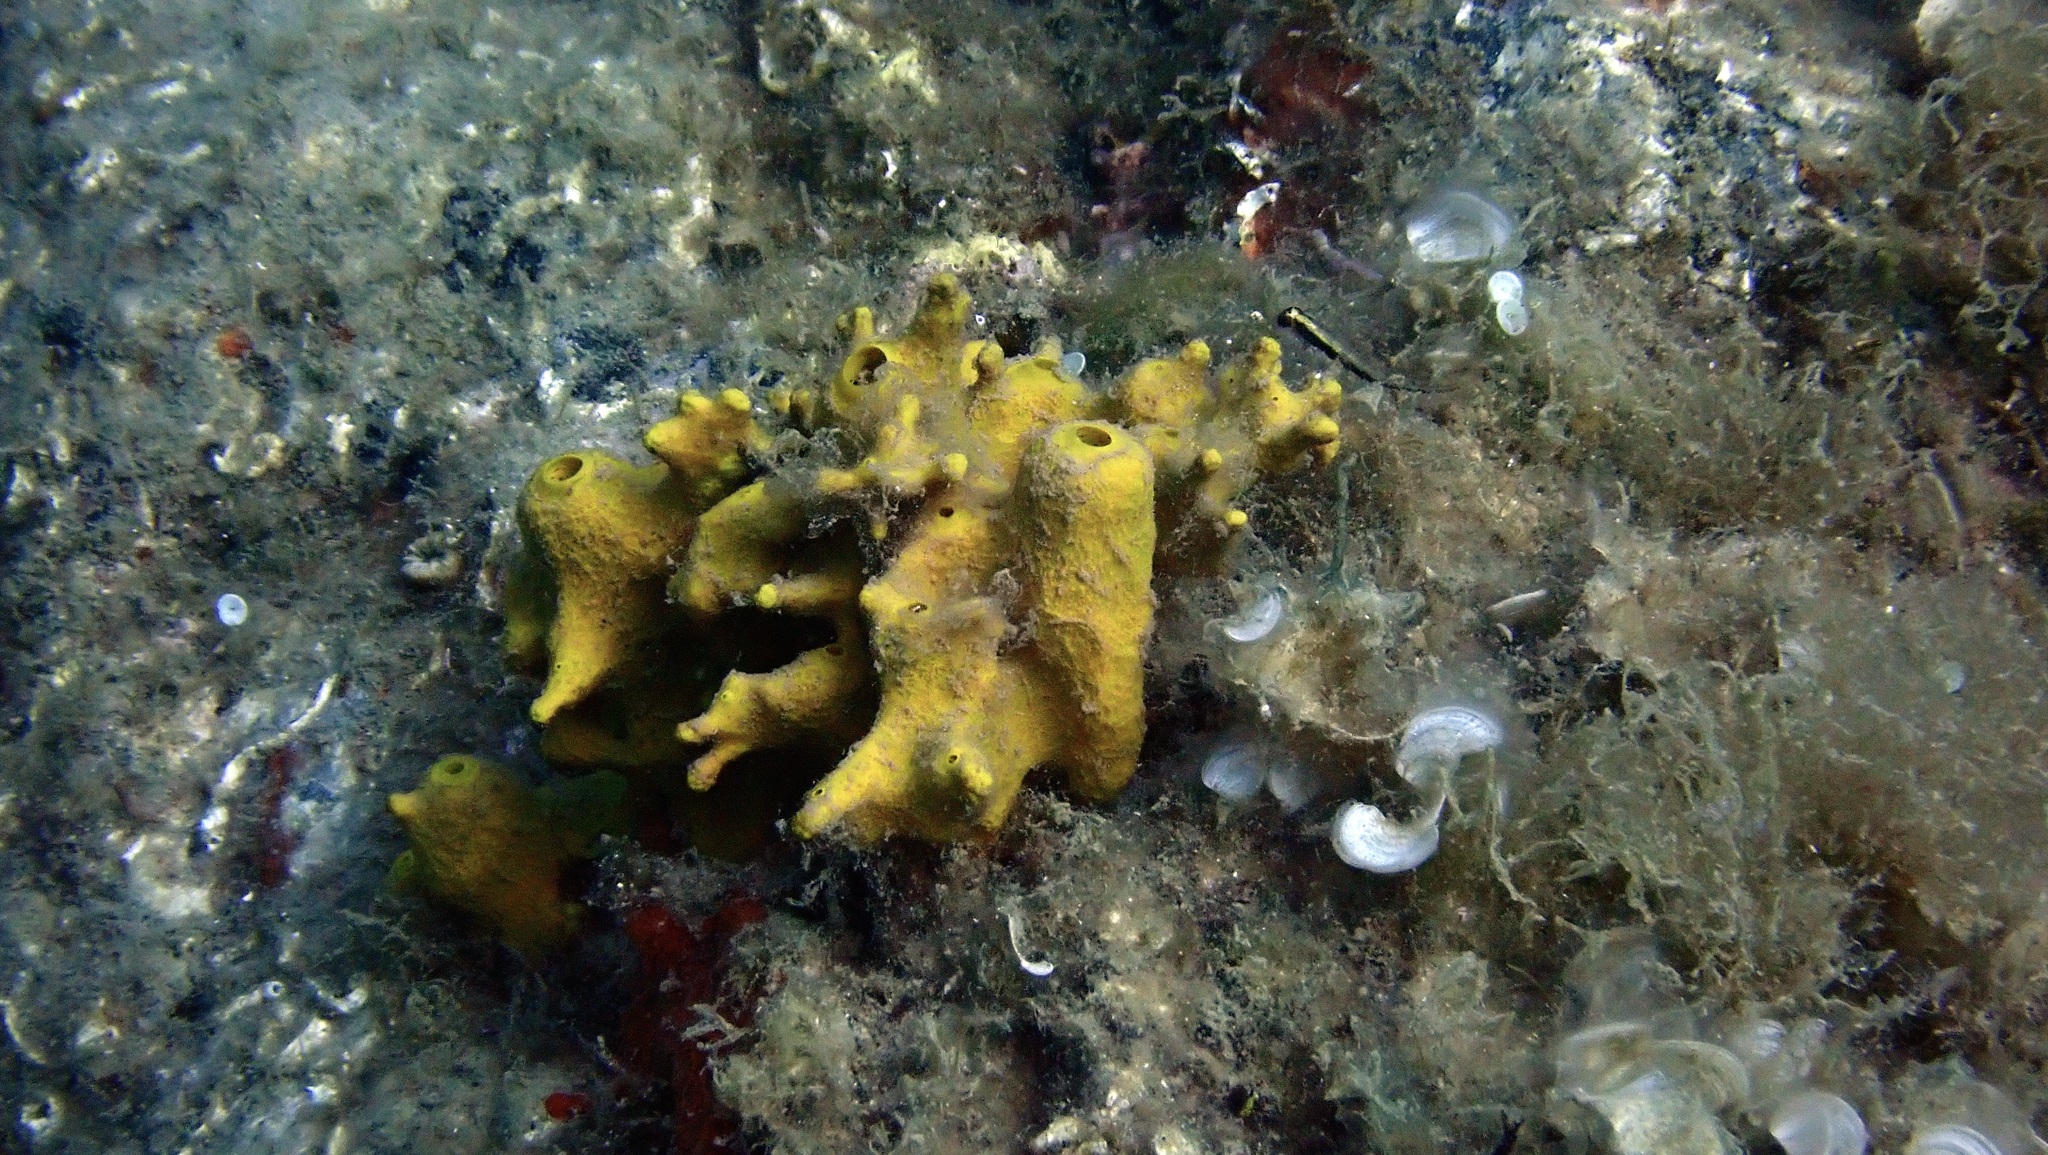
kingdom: Animalia
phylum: Porifera
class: Demospongiae
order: Verongiida
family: Aplysinidae
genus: Aplysina
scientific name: Aplysina aerophoba
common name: Aureate sponge
